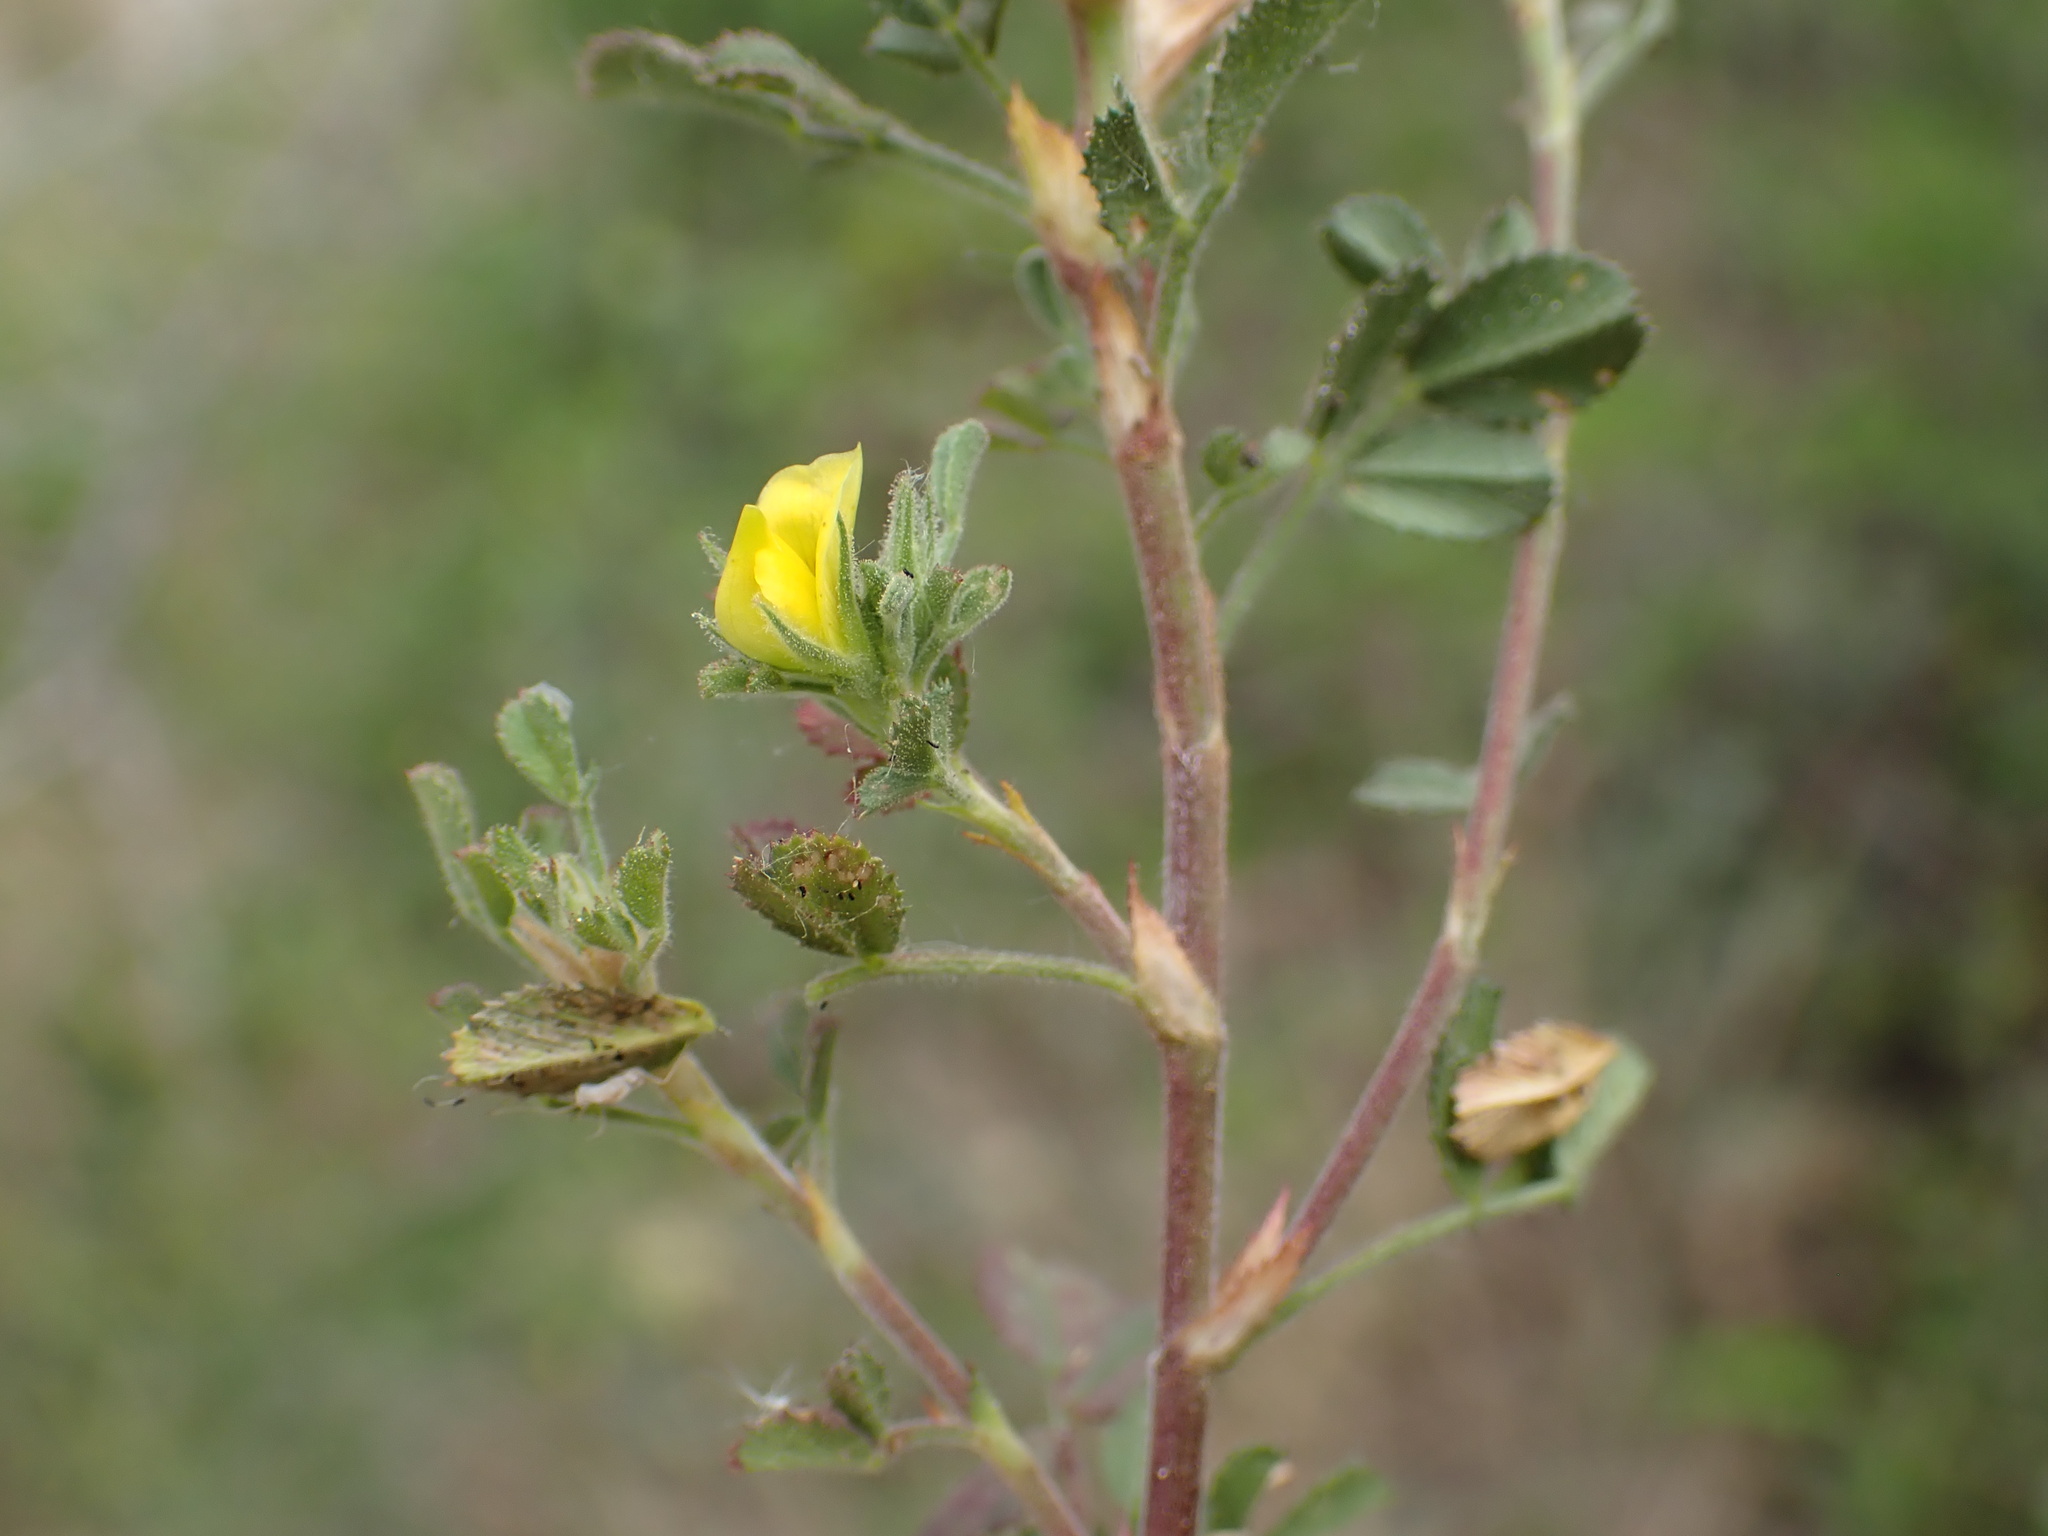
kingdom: Plantae
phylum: Tracheophyta
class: Magnoliopsida
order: Fabales
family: Fabaceae
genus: Ononis
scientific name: Ononis pusilla
